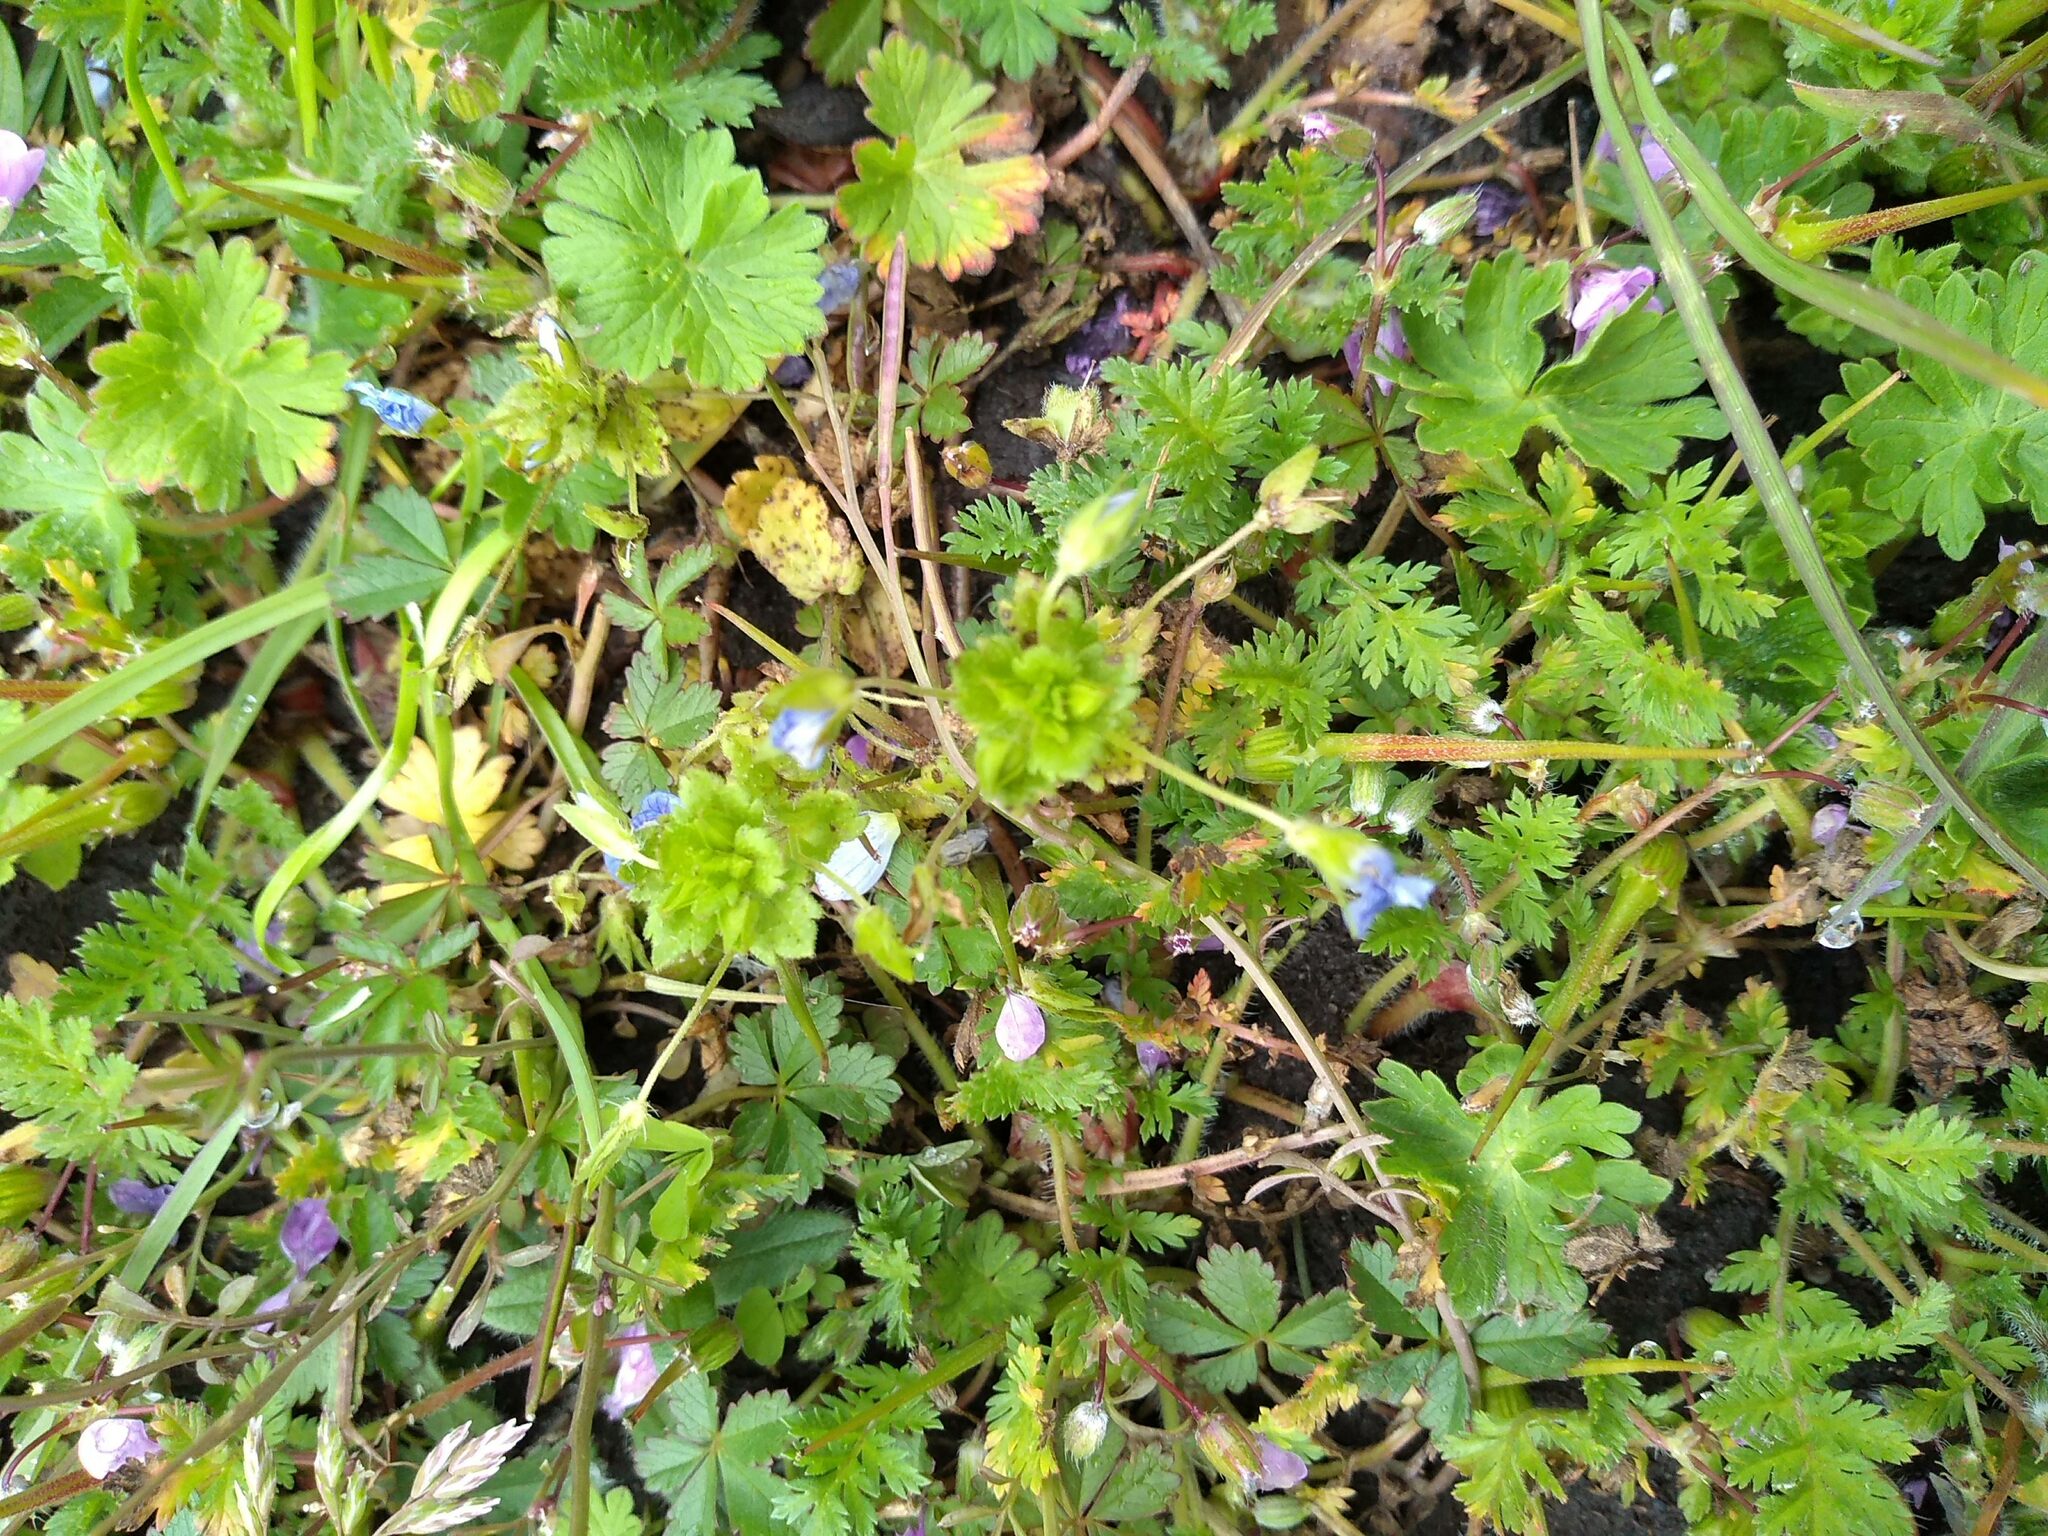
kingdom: Plantae
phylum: Tracheophyta
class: Magnoliopsida
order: Lamiales
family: Plantaginaceae
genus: Veronica
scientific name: Veronica persica
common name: Common field-speedwell
